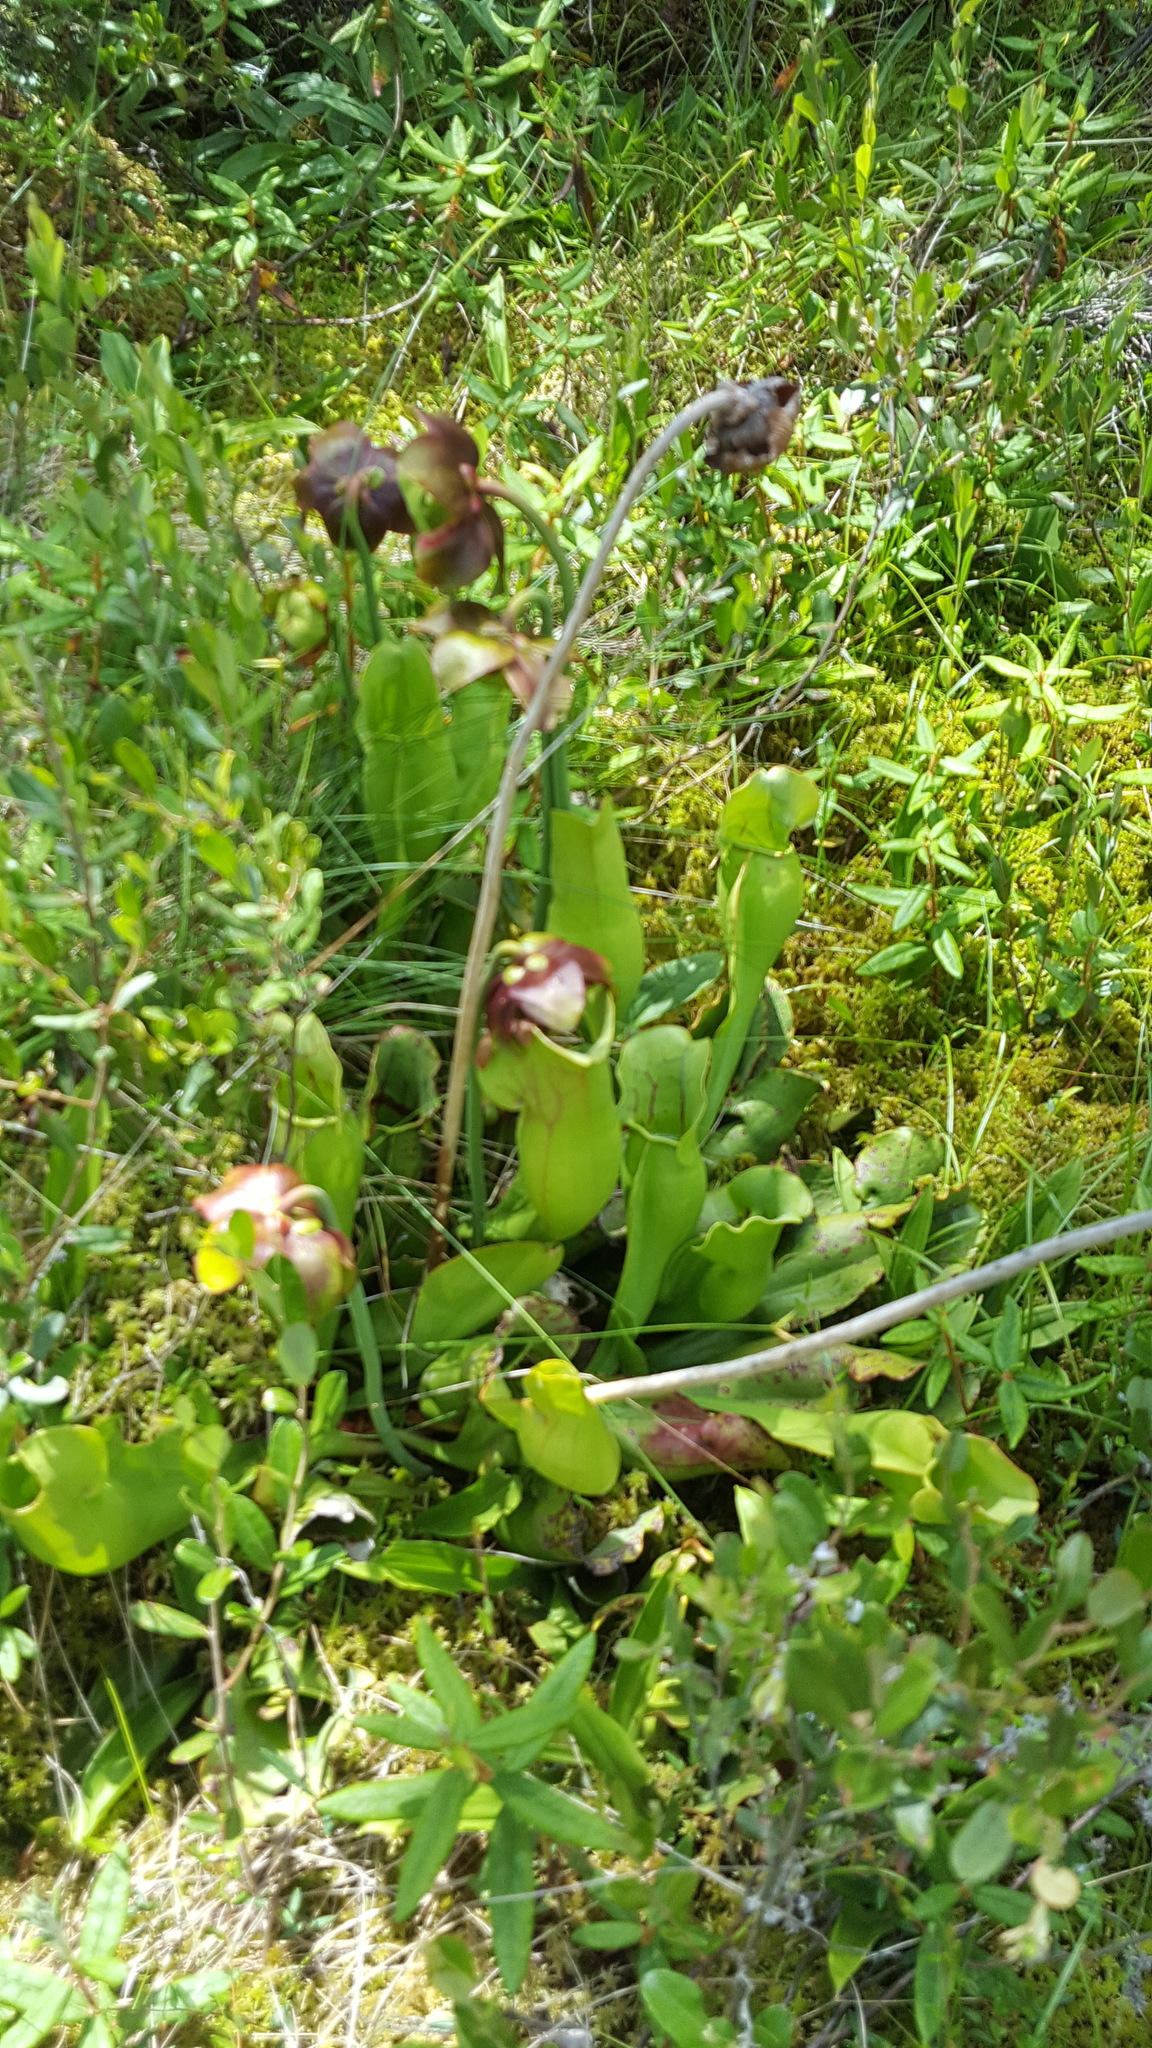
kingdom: Plantae
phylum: Tracheophyta
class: Magnoliopsida
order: Ericales
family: Sarraceniaceae
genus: Sarracenia
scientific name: Sarracenia purpurea
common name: Pitcherplant
